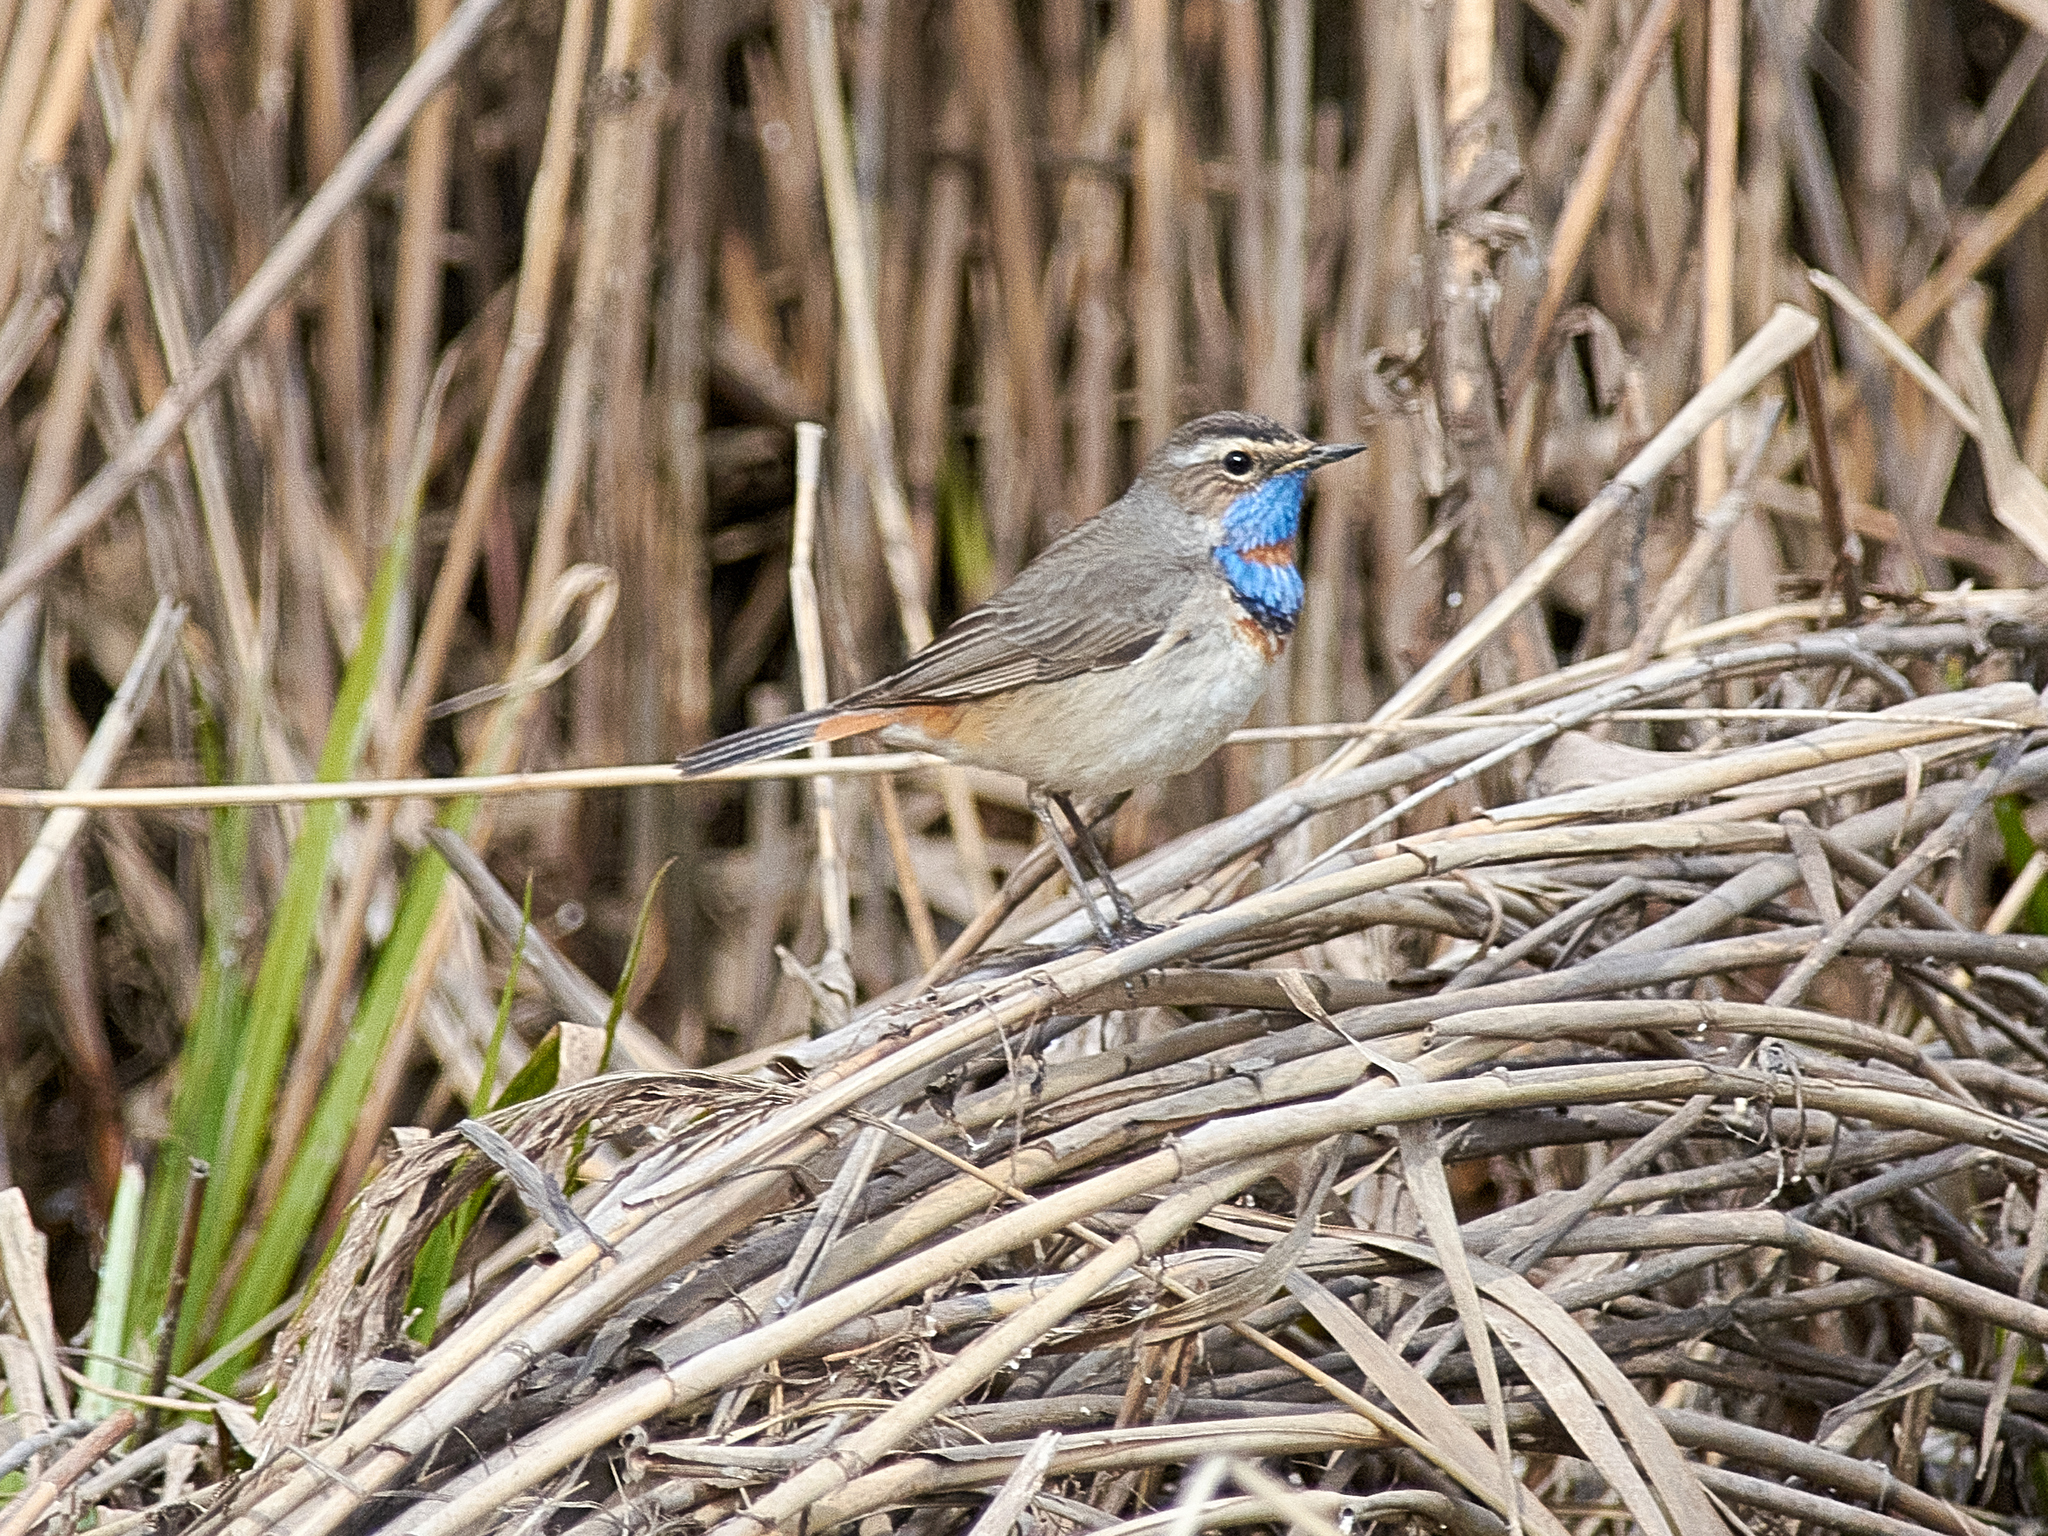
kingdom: Animalia
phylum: Chordata
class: Aves
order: Passeriformes
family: Muscicapidae
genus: Luscinia
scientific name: Luscinia svecica
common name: Bluethroat
